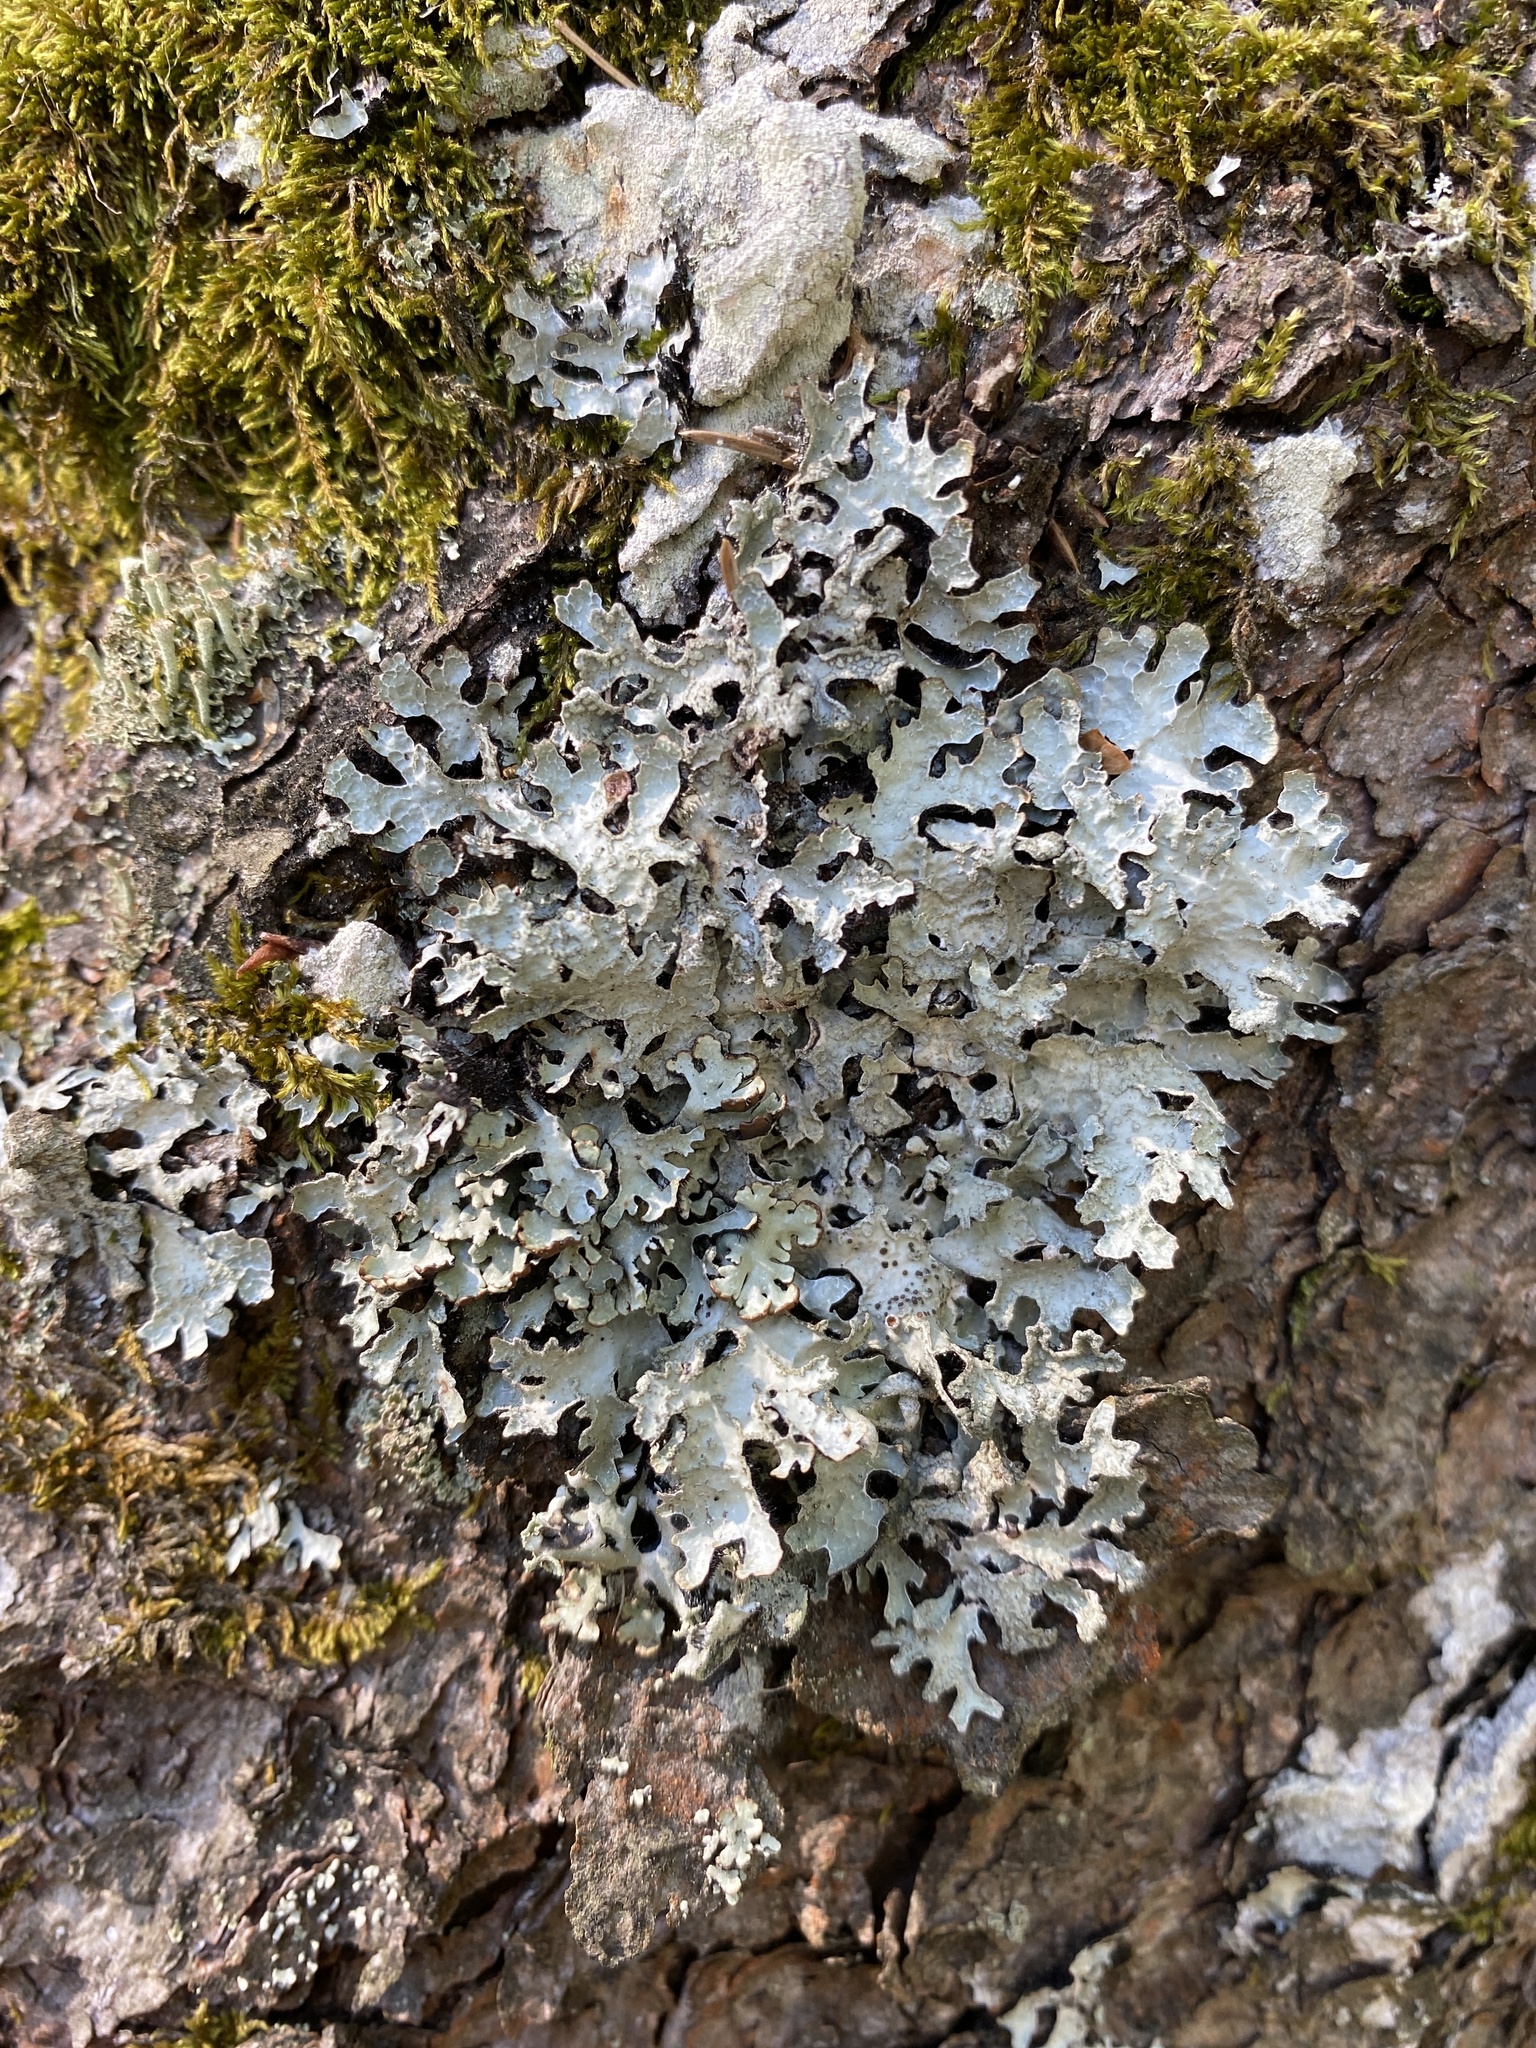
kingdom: Fungi
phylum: Ascomycota
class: Lecanoromycetes
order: Lecanorales
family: Parmeliaceae
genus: Parmelia
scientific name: Parmelia sulcata
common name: Netted shield lichen
